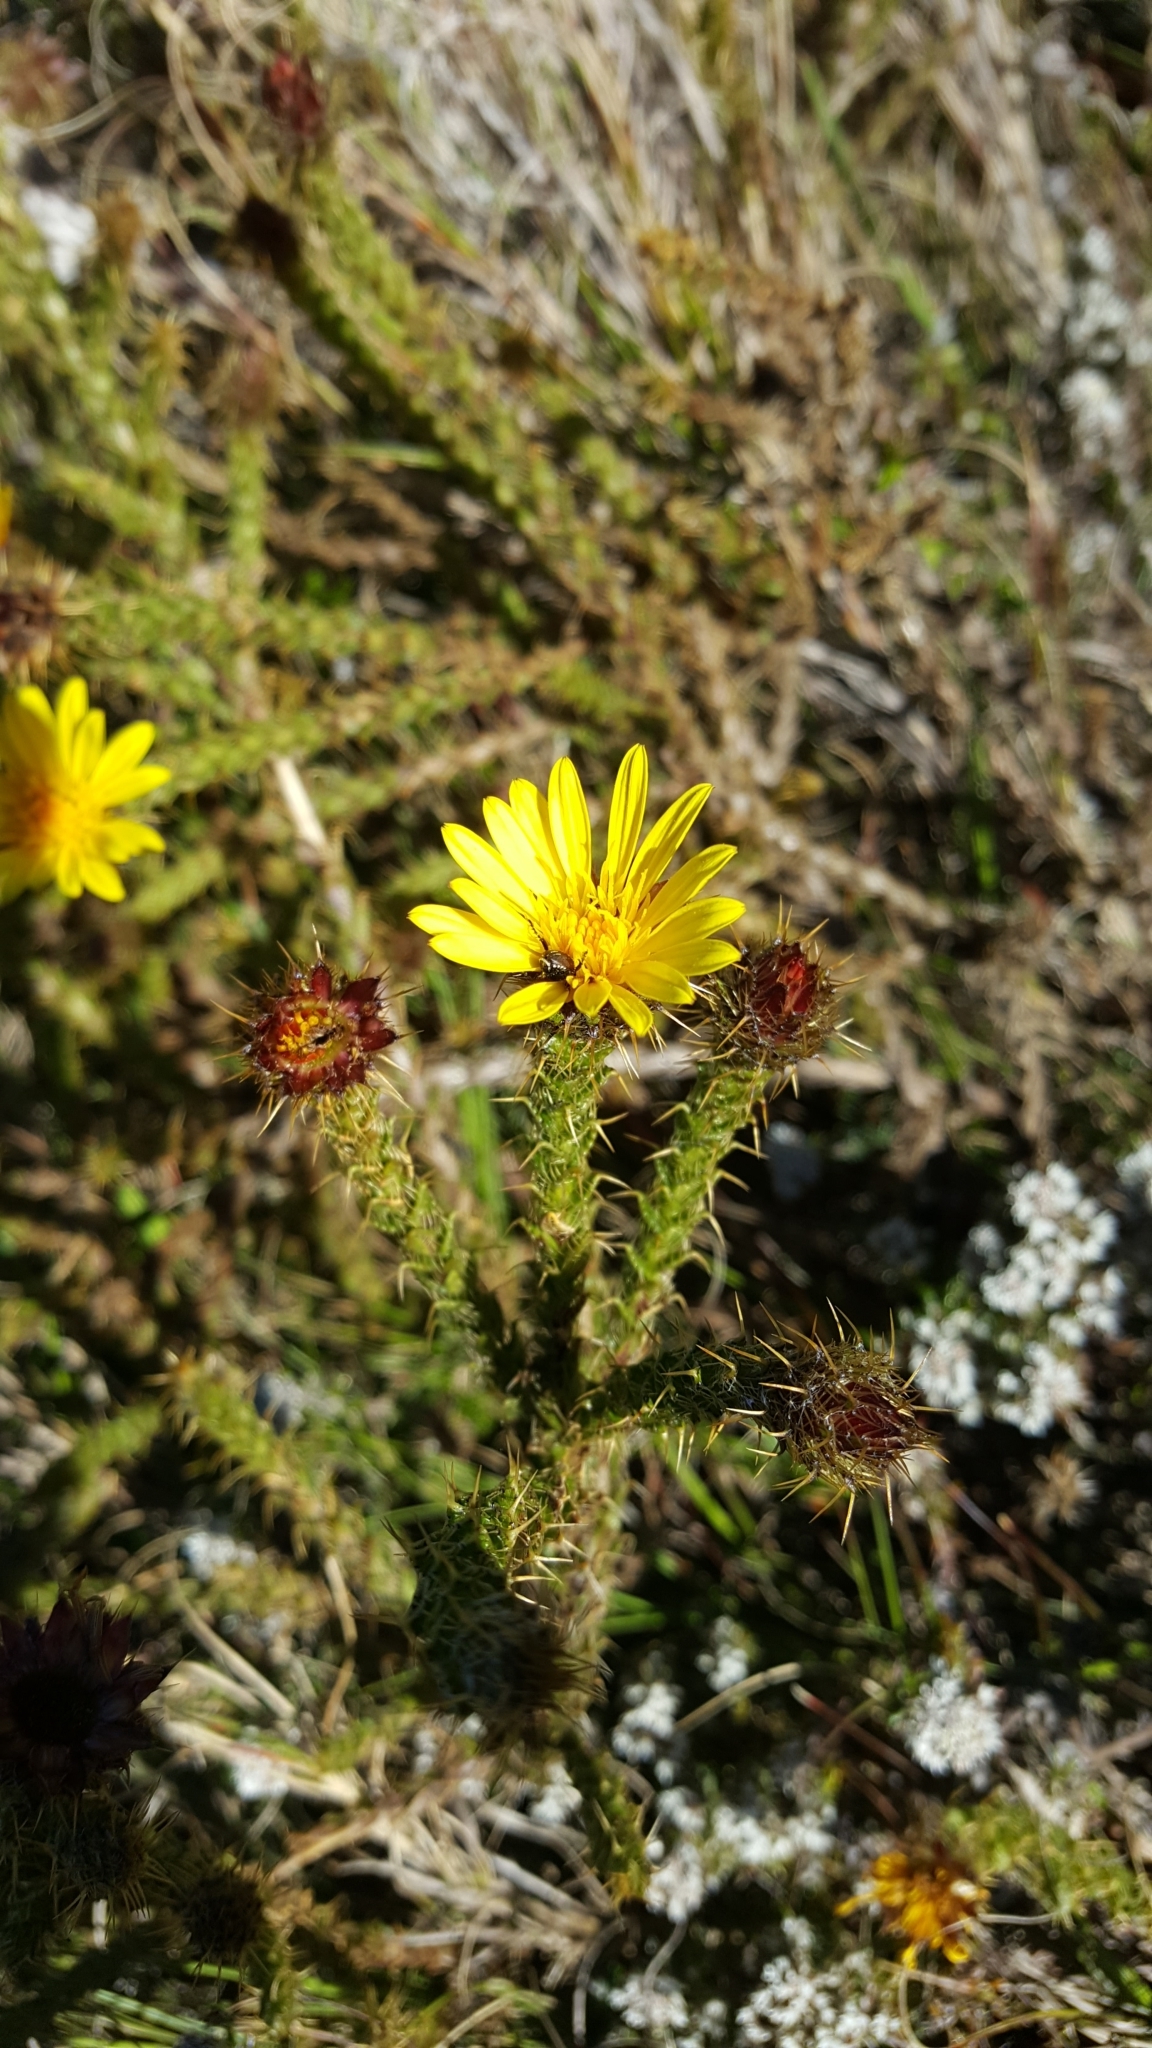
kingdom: Plantae
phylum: Tracheophyta
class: Magnoliopsida
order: Asterales
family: Asteraceae
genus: Cullumia
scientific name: Cullumia reticulata
